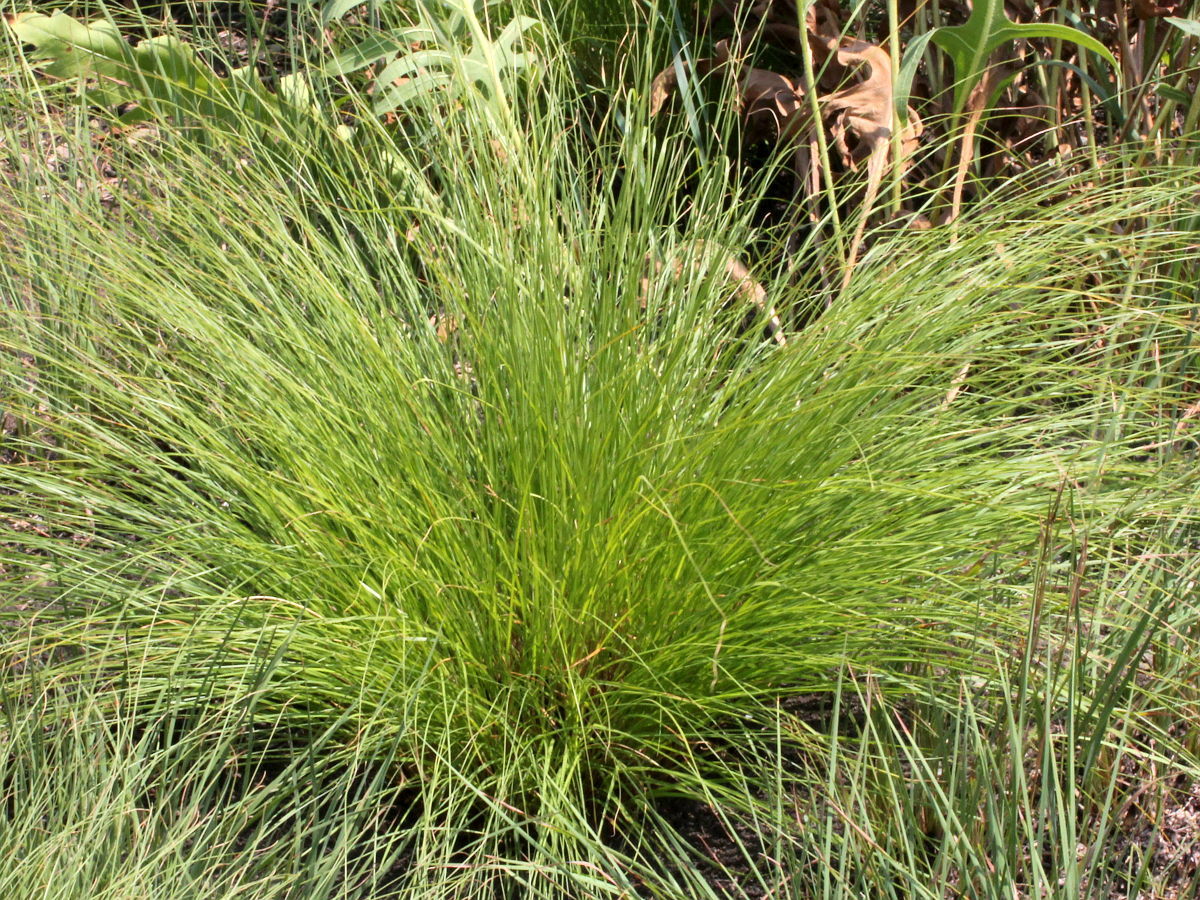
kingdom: Plantae
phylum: Tracheophyta
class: Liliopsida
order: Poales
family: Poaceae
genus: Sporobolus
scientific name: Sporobolus heterolepis
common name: Prairie dropseed
